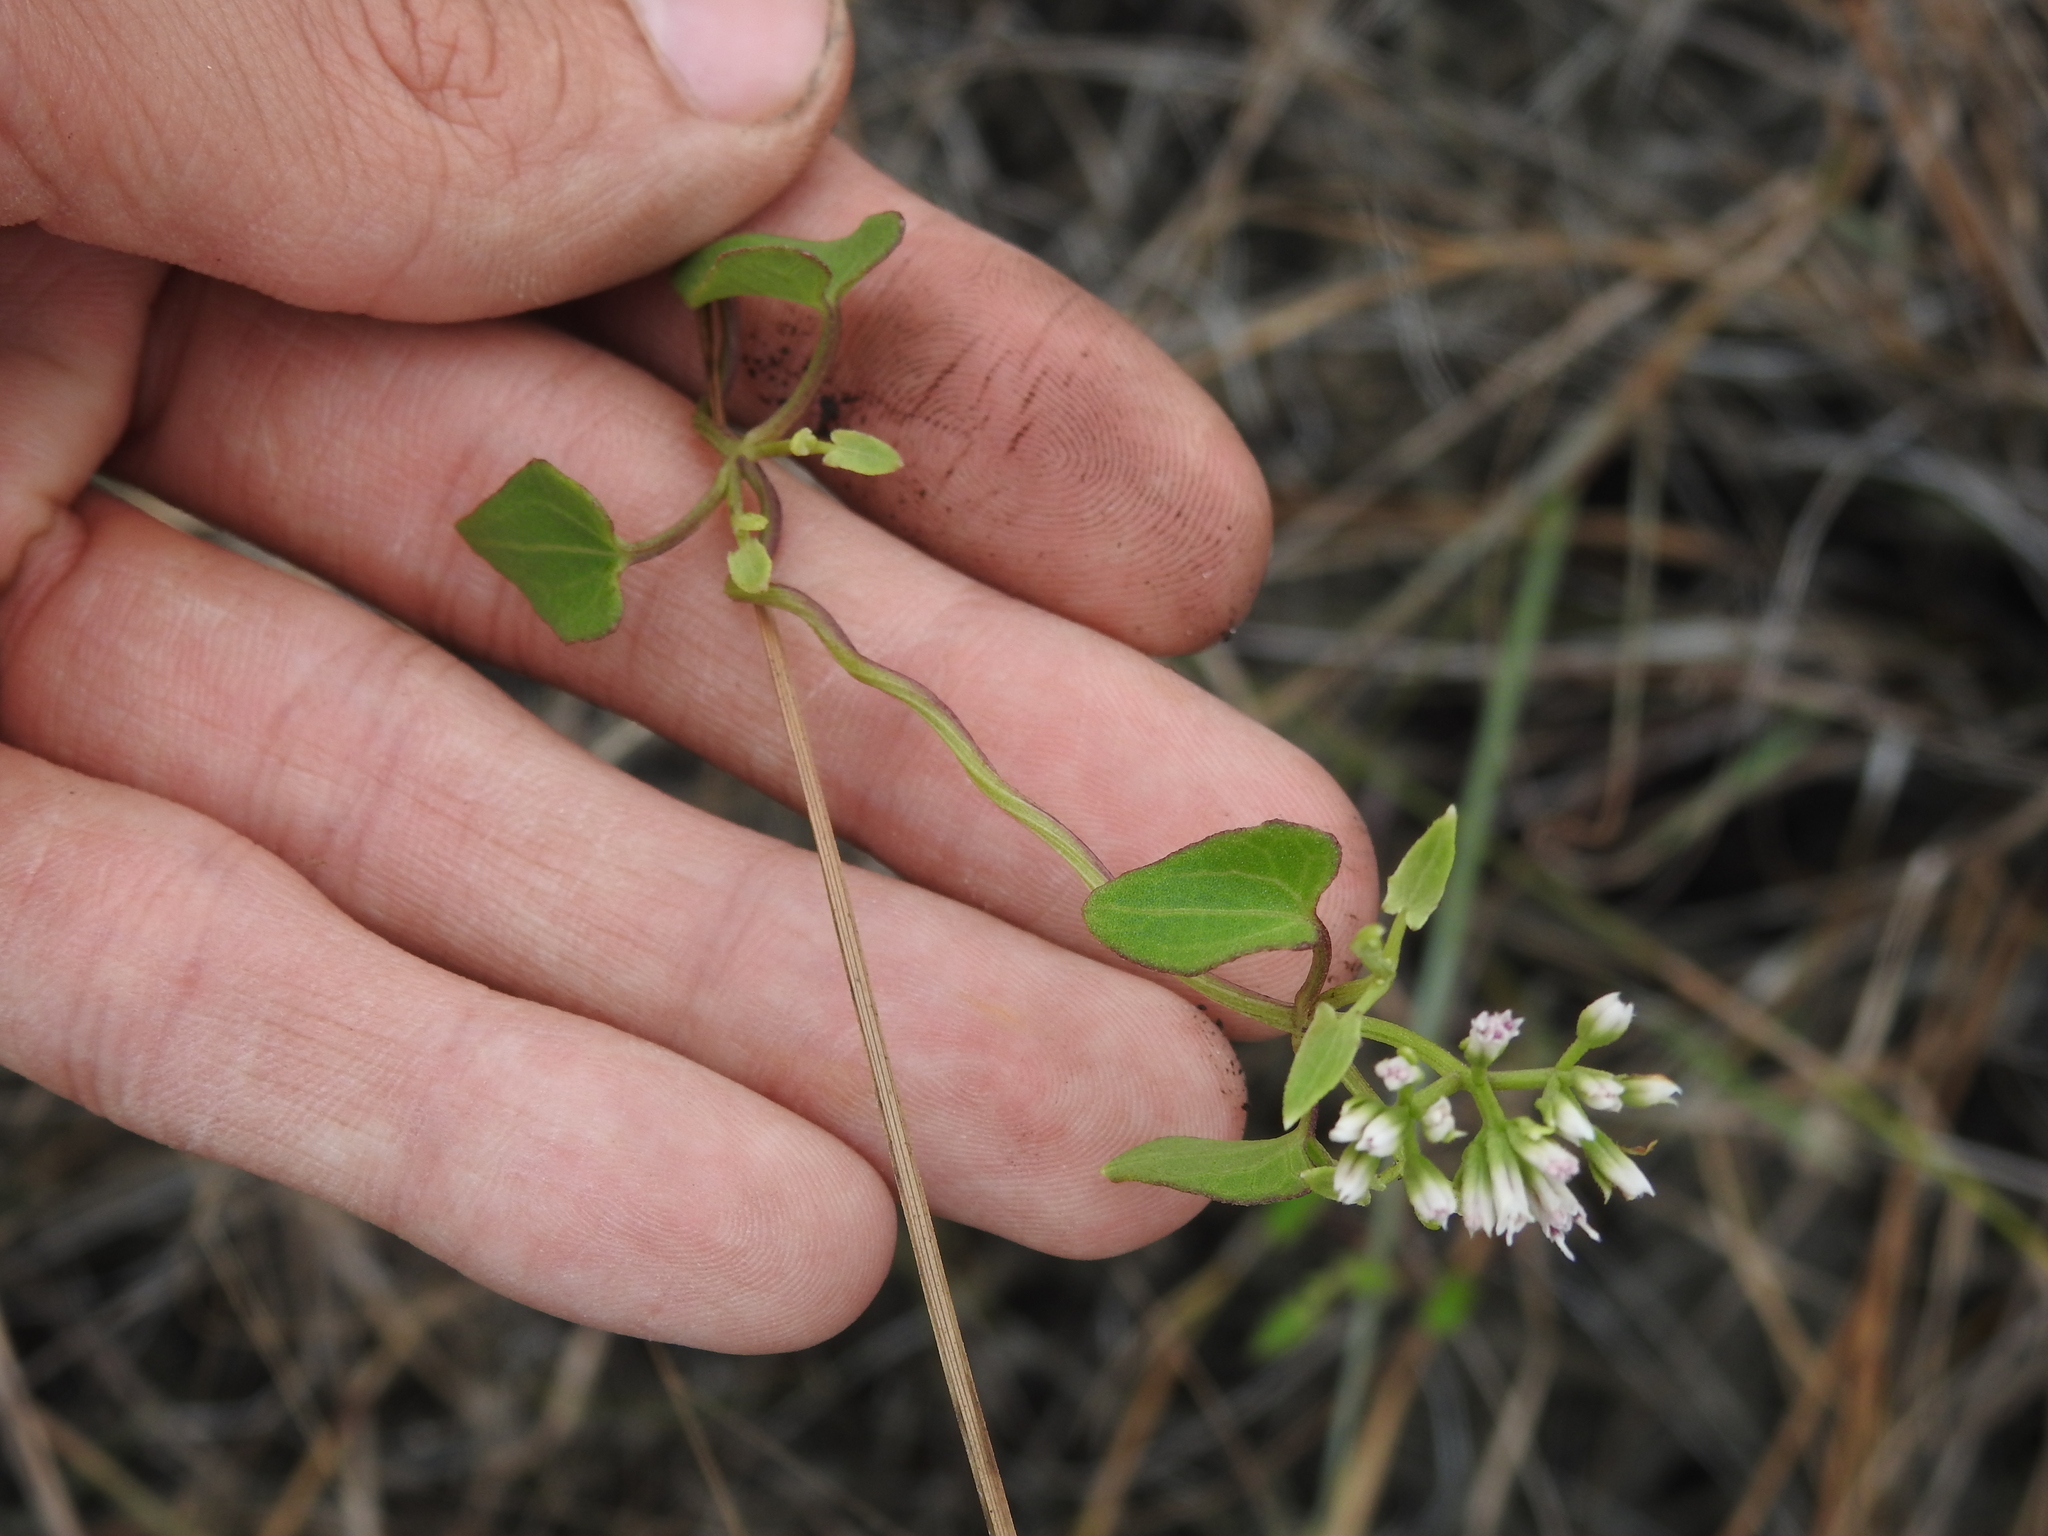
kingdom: Plantae
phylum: Tracheophyta
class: Magnoliopsida
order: Asterales
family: Asteraceae
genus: Mikania
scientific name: Mikania scandens
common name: Climbing hempvine
